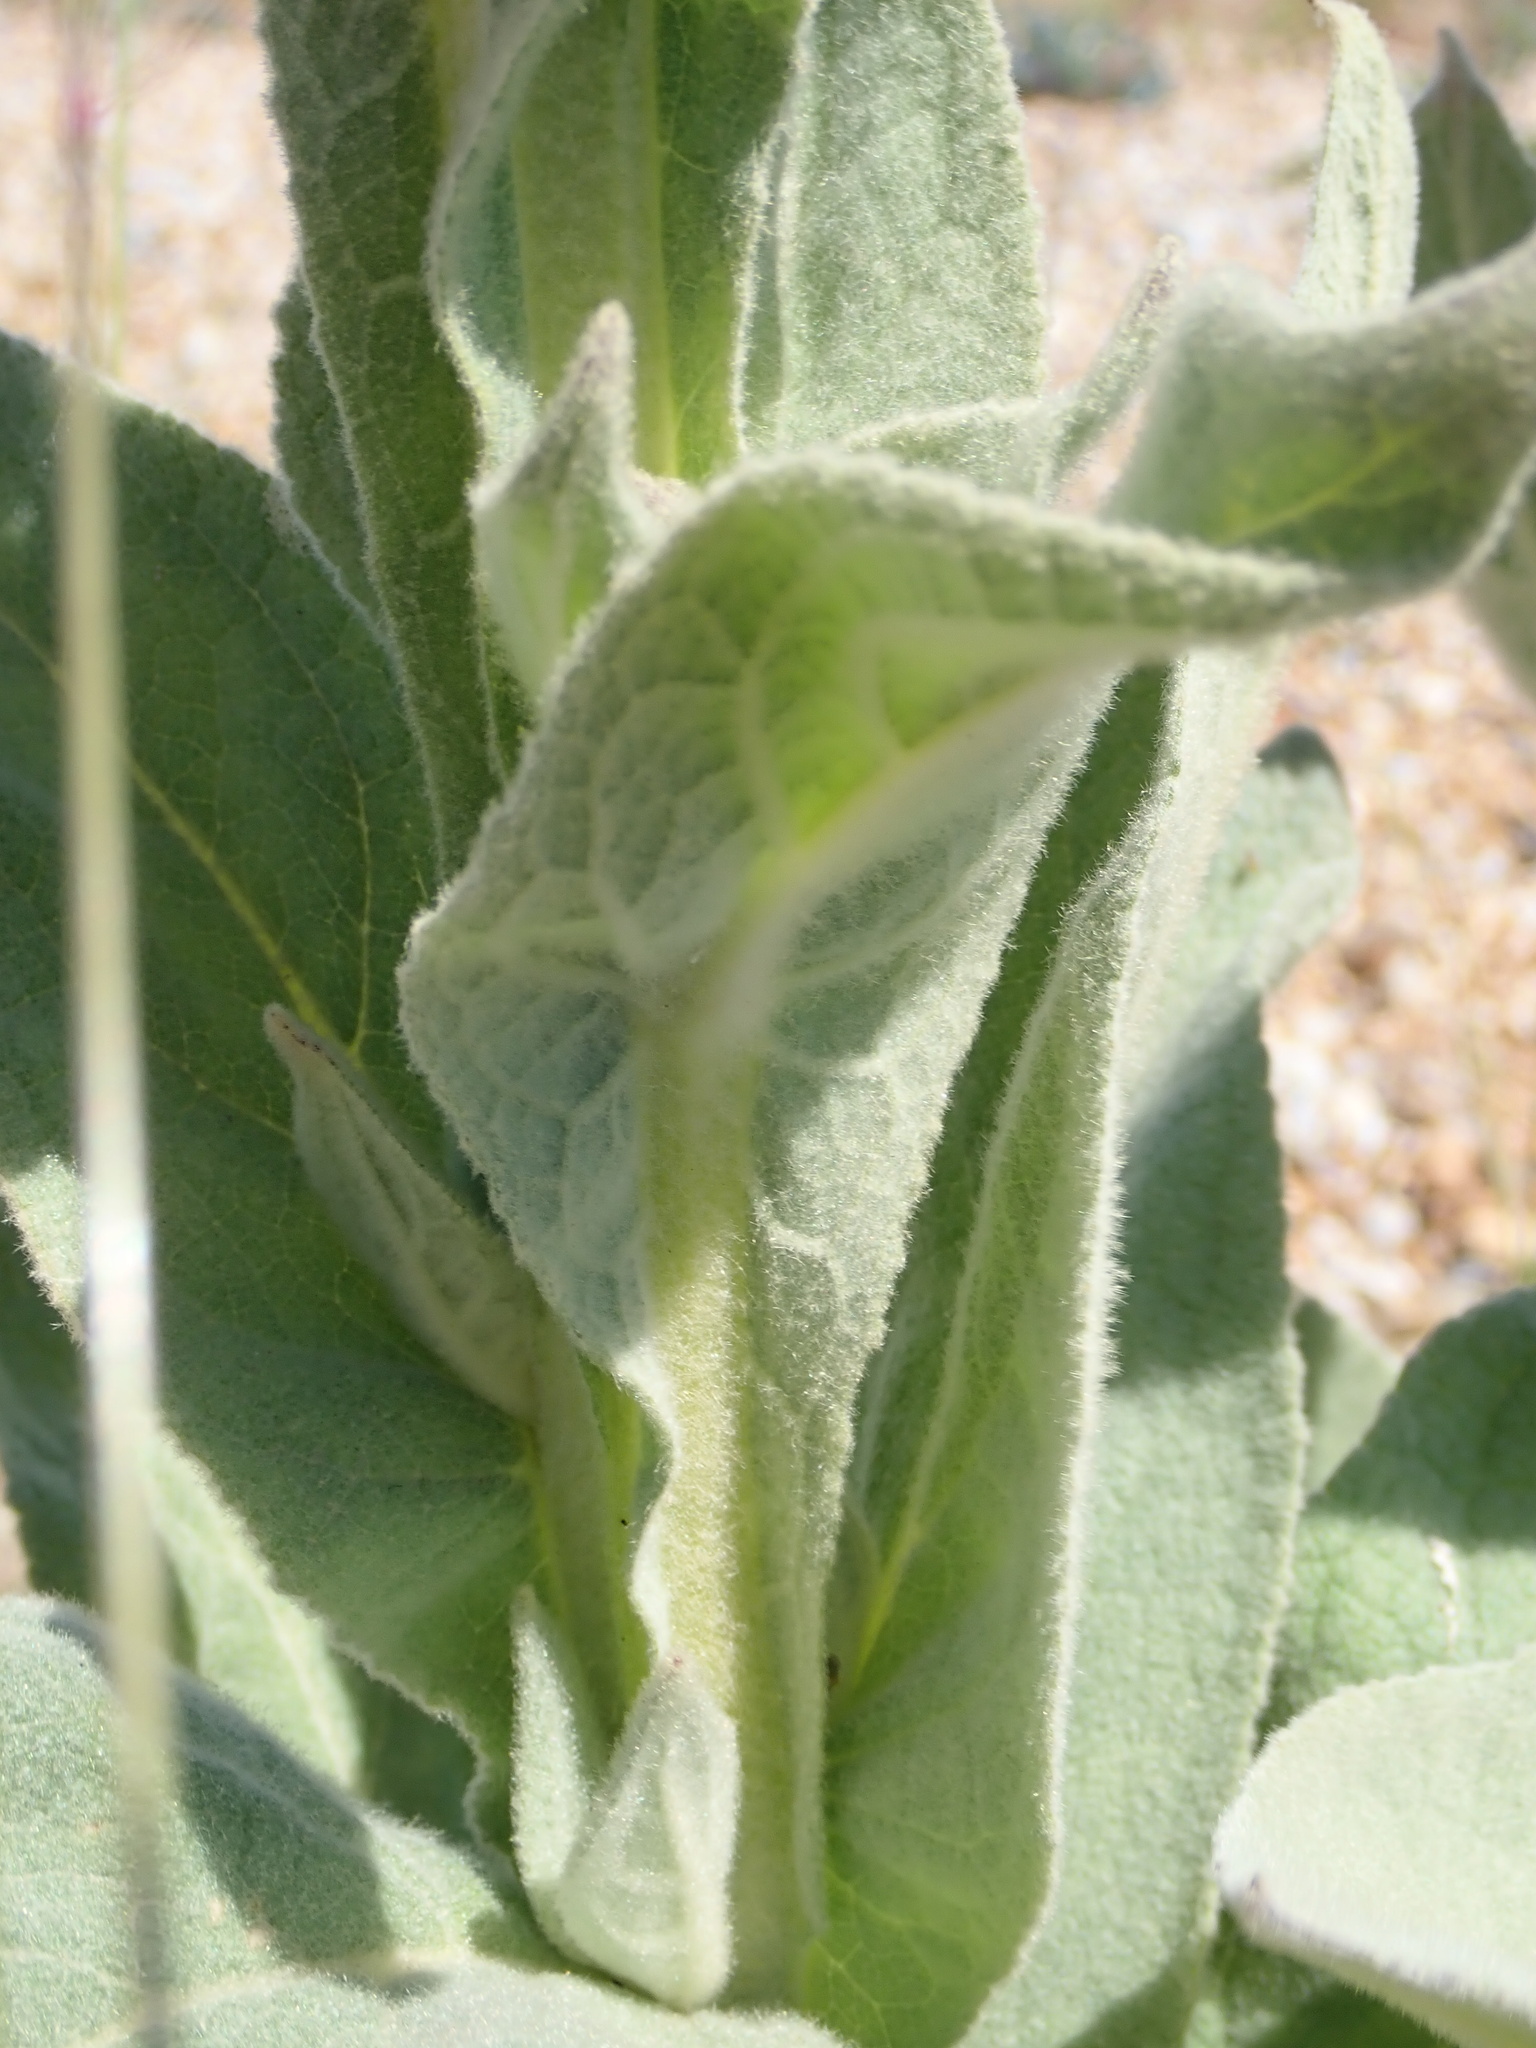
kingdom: Plantae
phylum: Tracheophyta
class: Magnoliopsida
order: Lamiales
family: Scrophulariaceae
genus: Verbascum
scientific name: Verbascum thapsus
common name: Common mullein
